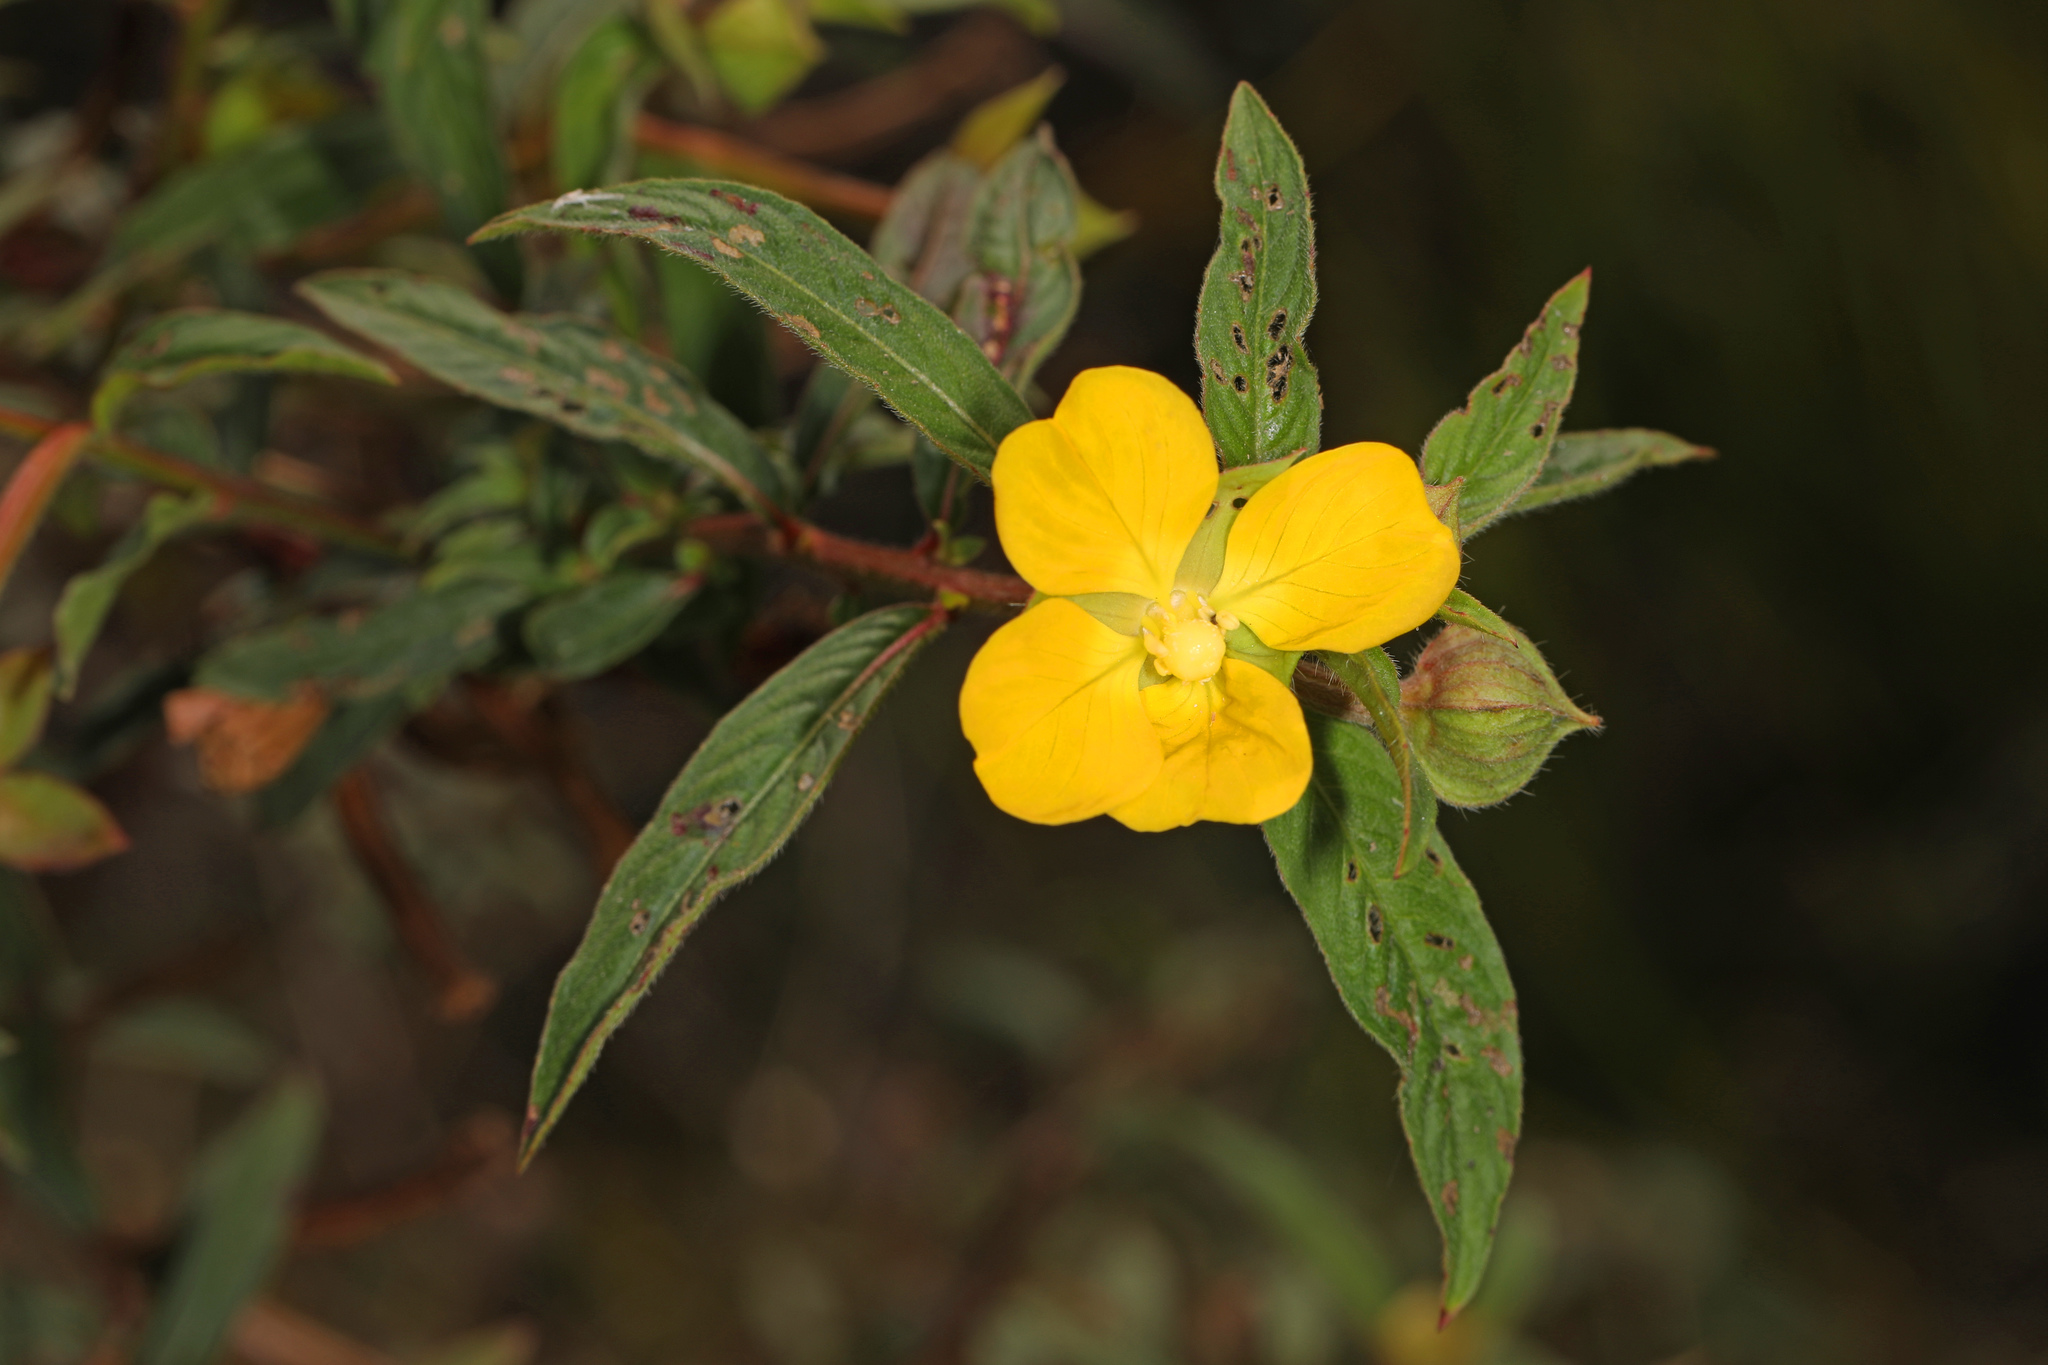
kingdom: Plantae
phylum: Tracheophyta
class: Magnoliopsida
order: Myrtales
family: Onagraceae
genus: Ludwigia
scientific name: Ludwigia octovalvis
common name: Water-primrose
